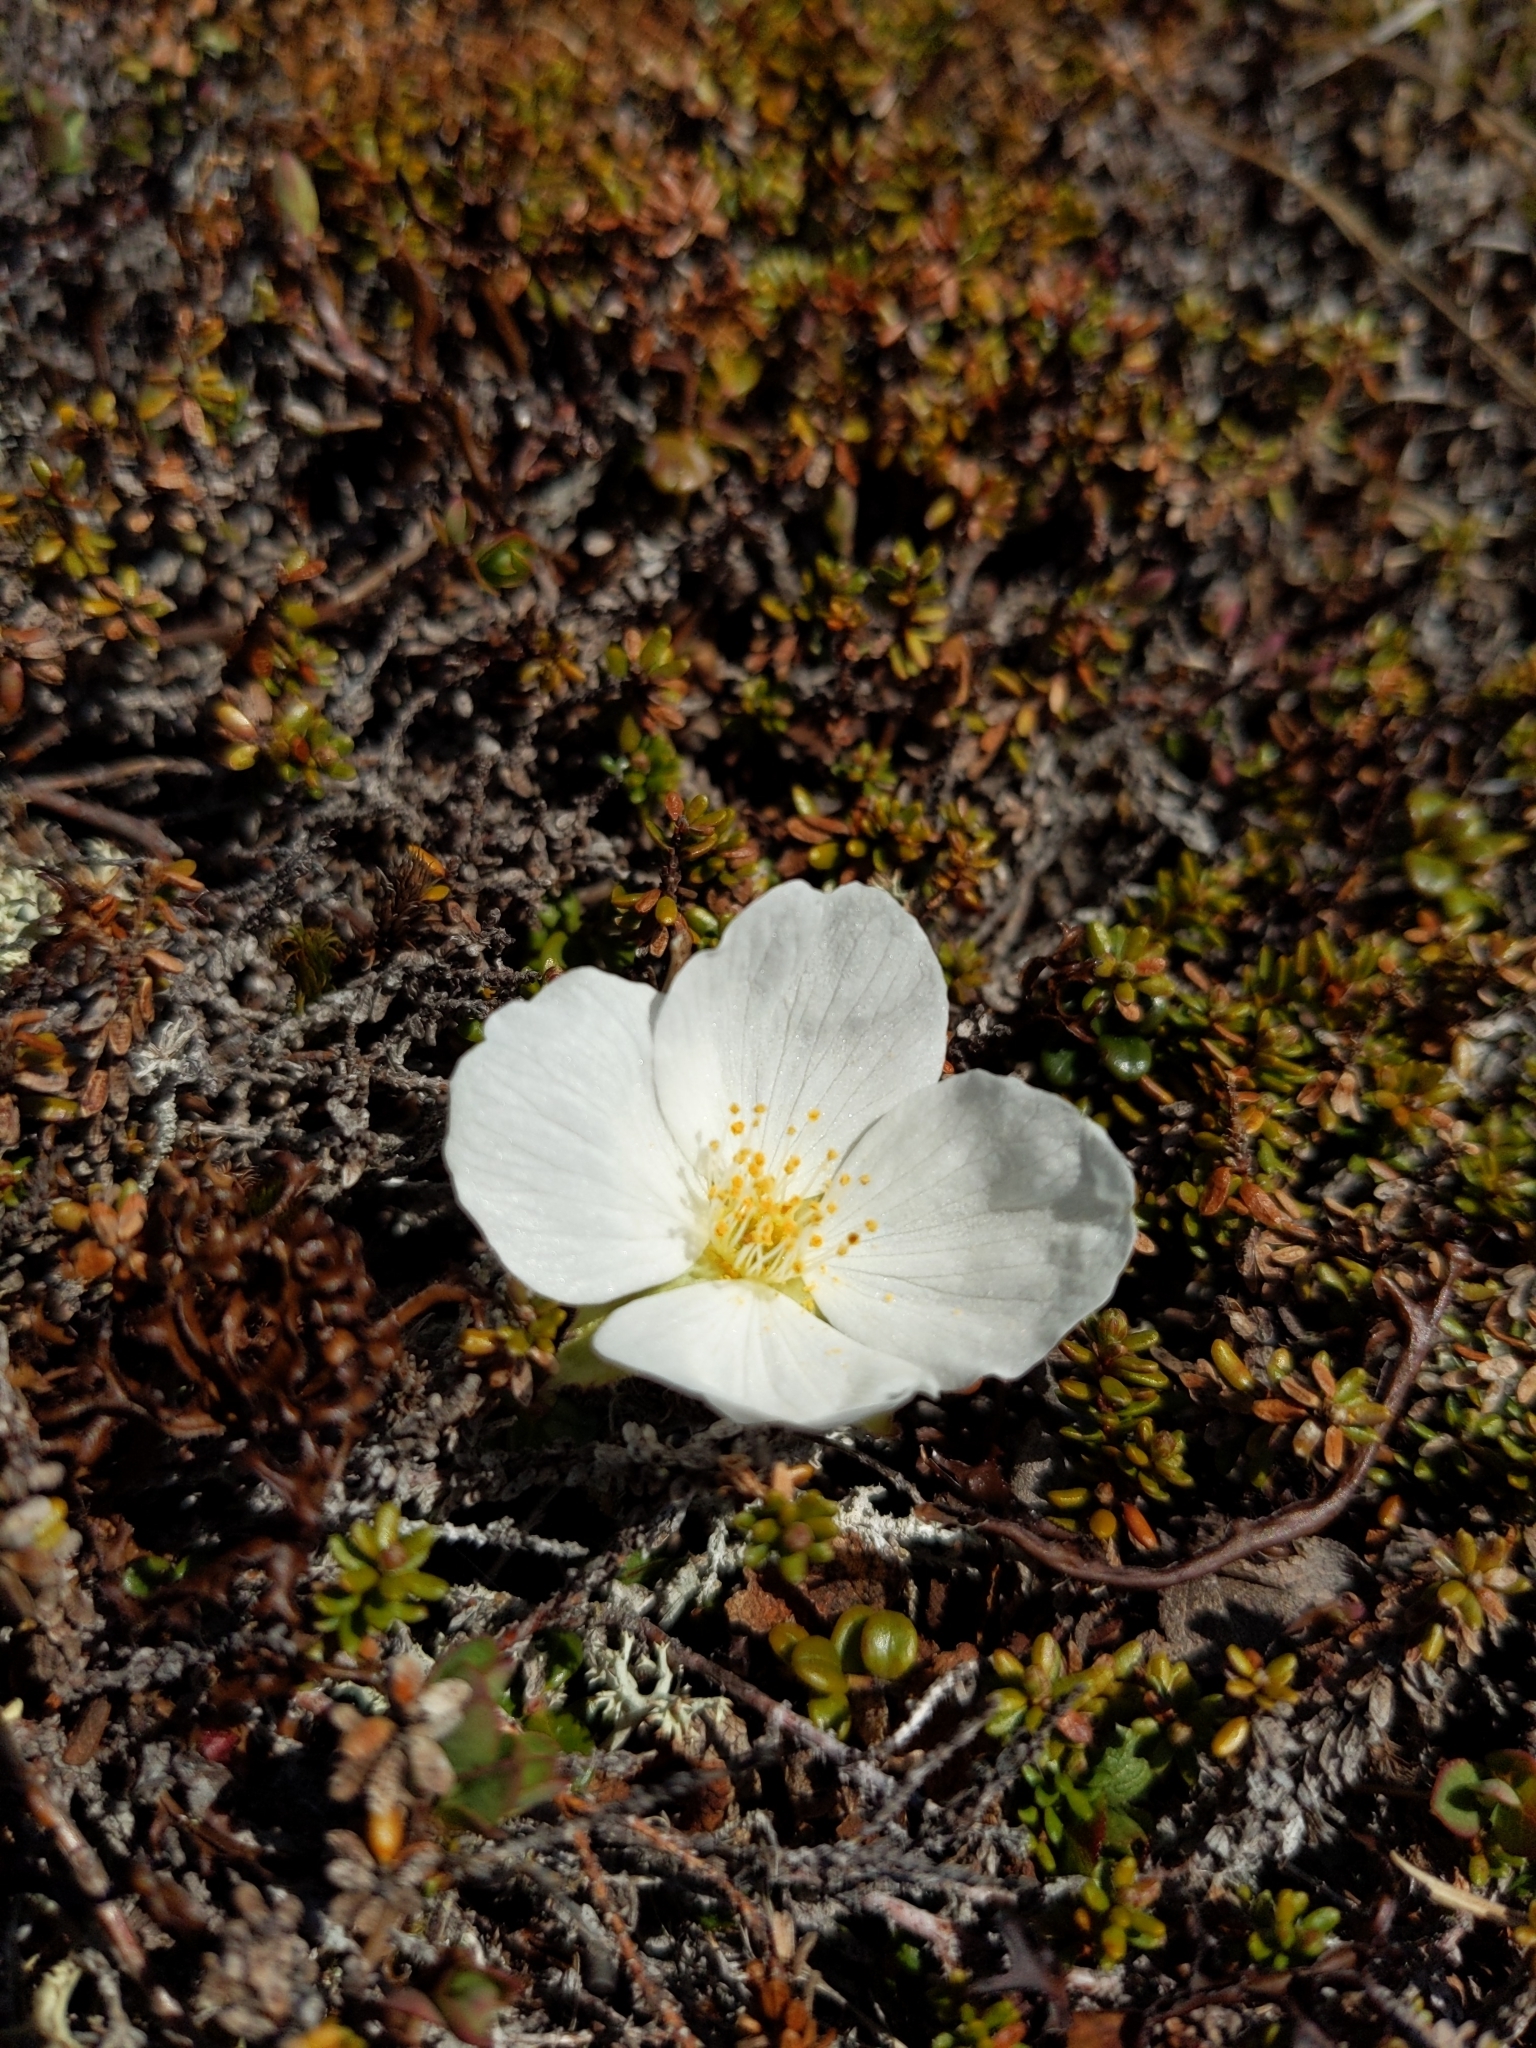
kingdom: Plantae
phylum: Tracheophyta
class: Magnoliopsida
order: Rosales
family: Rosaceae
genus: Rubus
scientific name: Rubus chamaemorus
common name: Cloudberry
